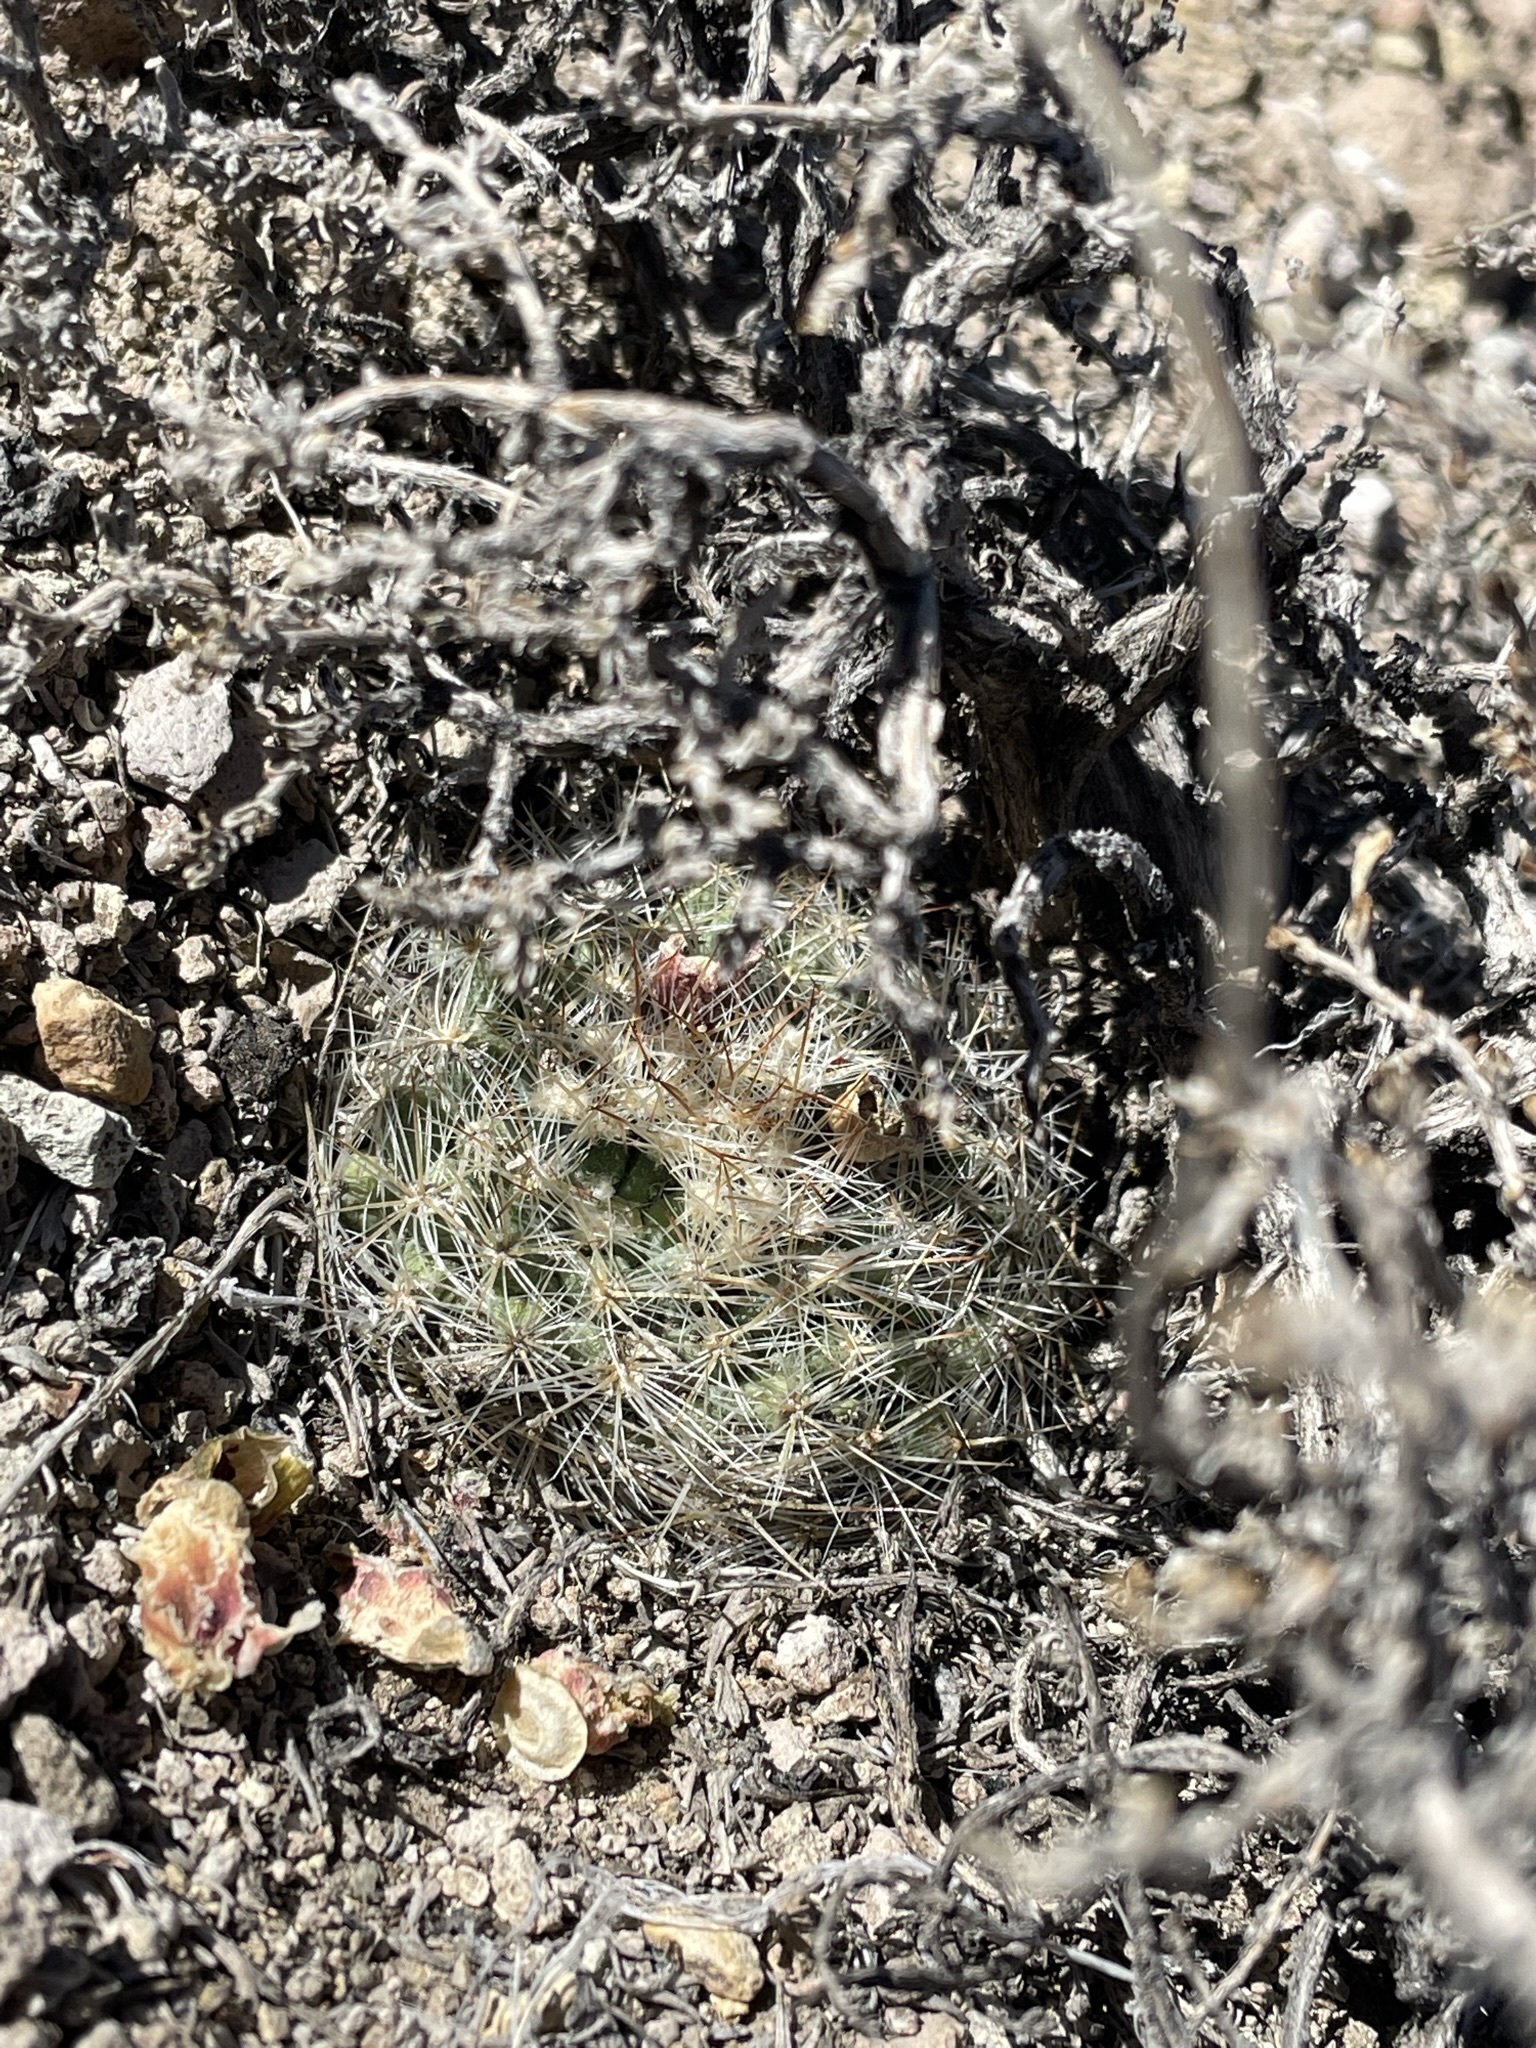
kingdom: Plantae
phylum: Tracheophyta
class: Magnoliopsida
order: Caryophyllales
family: Cactaceae
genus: Pediocactus
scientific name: Pediocactus simpsonii
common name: Simpson's hedgehog cactus
